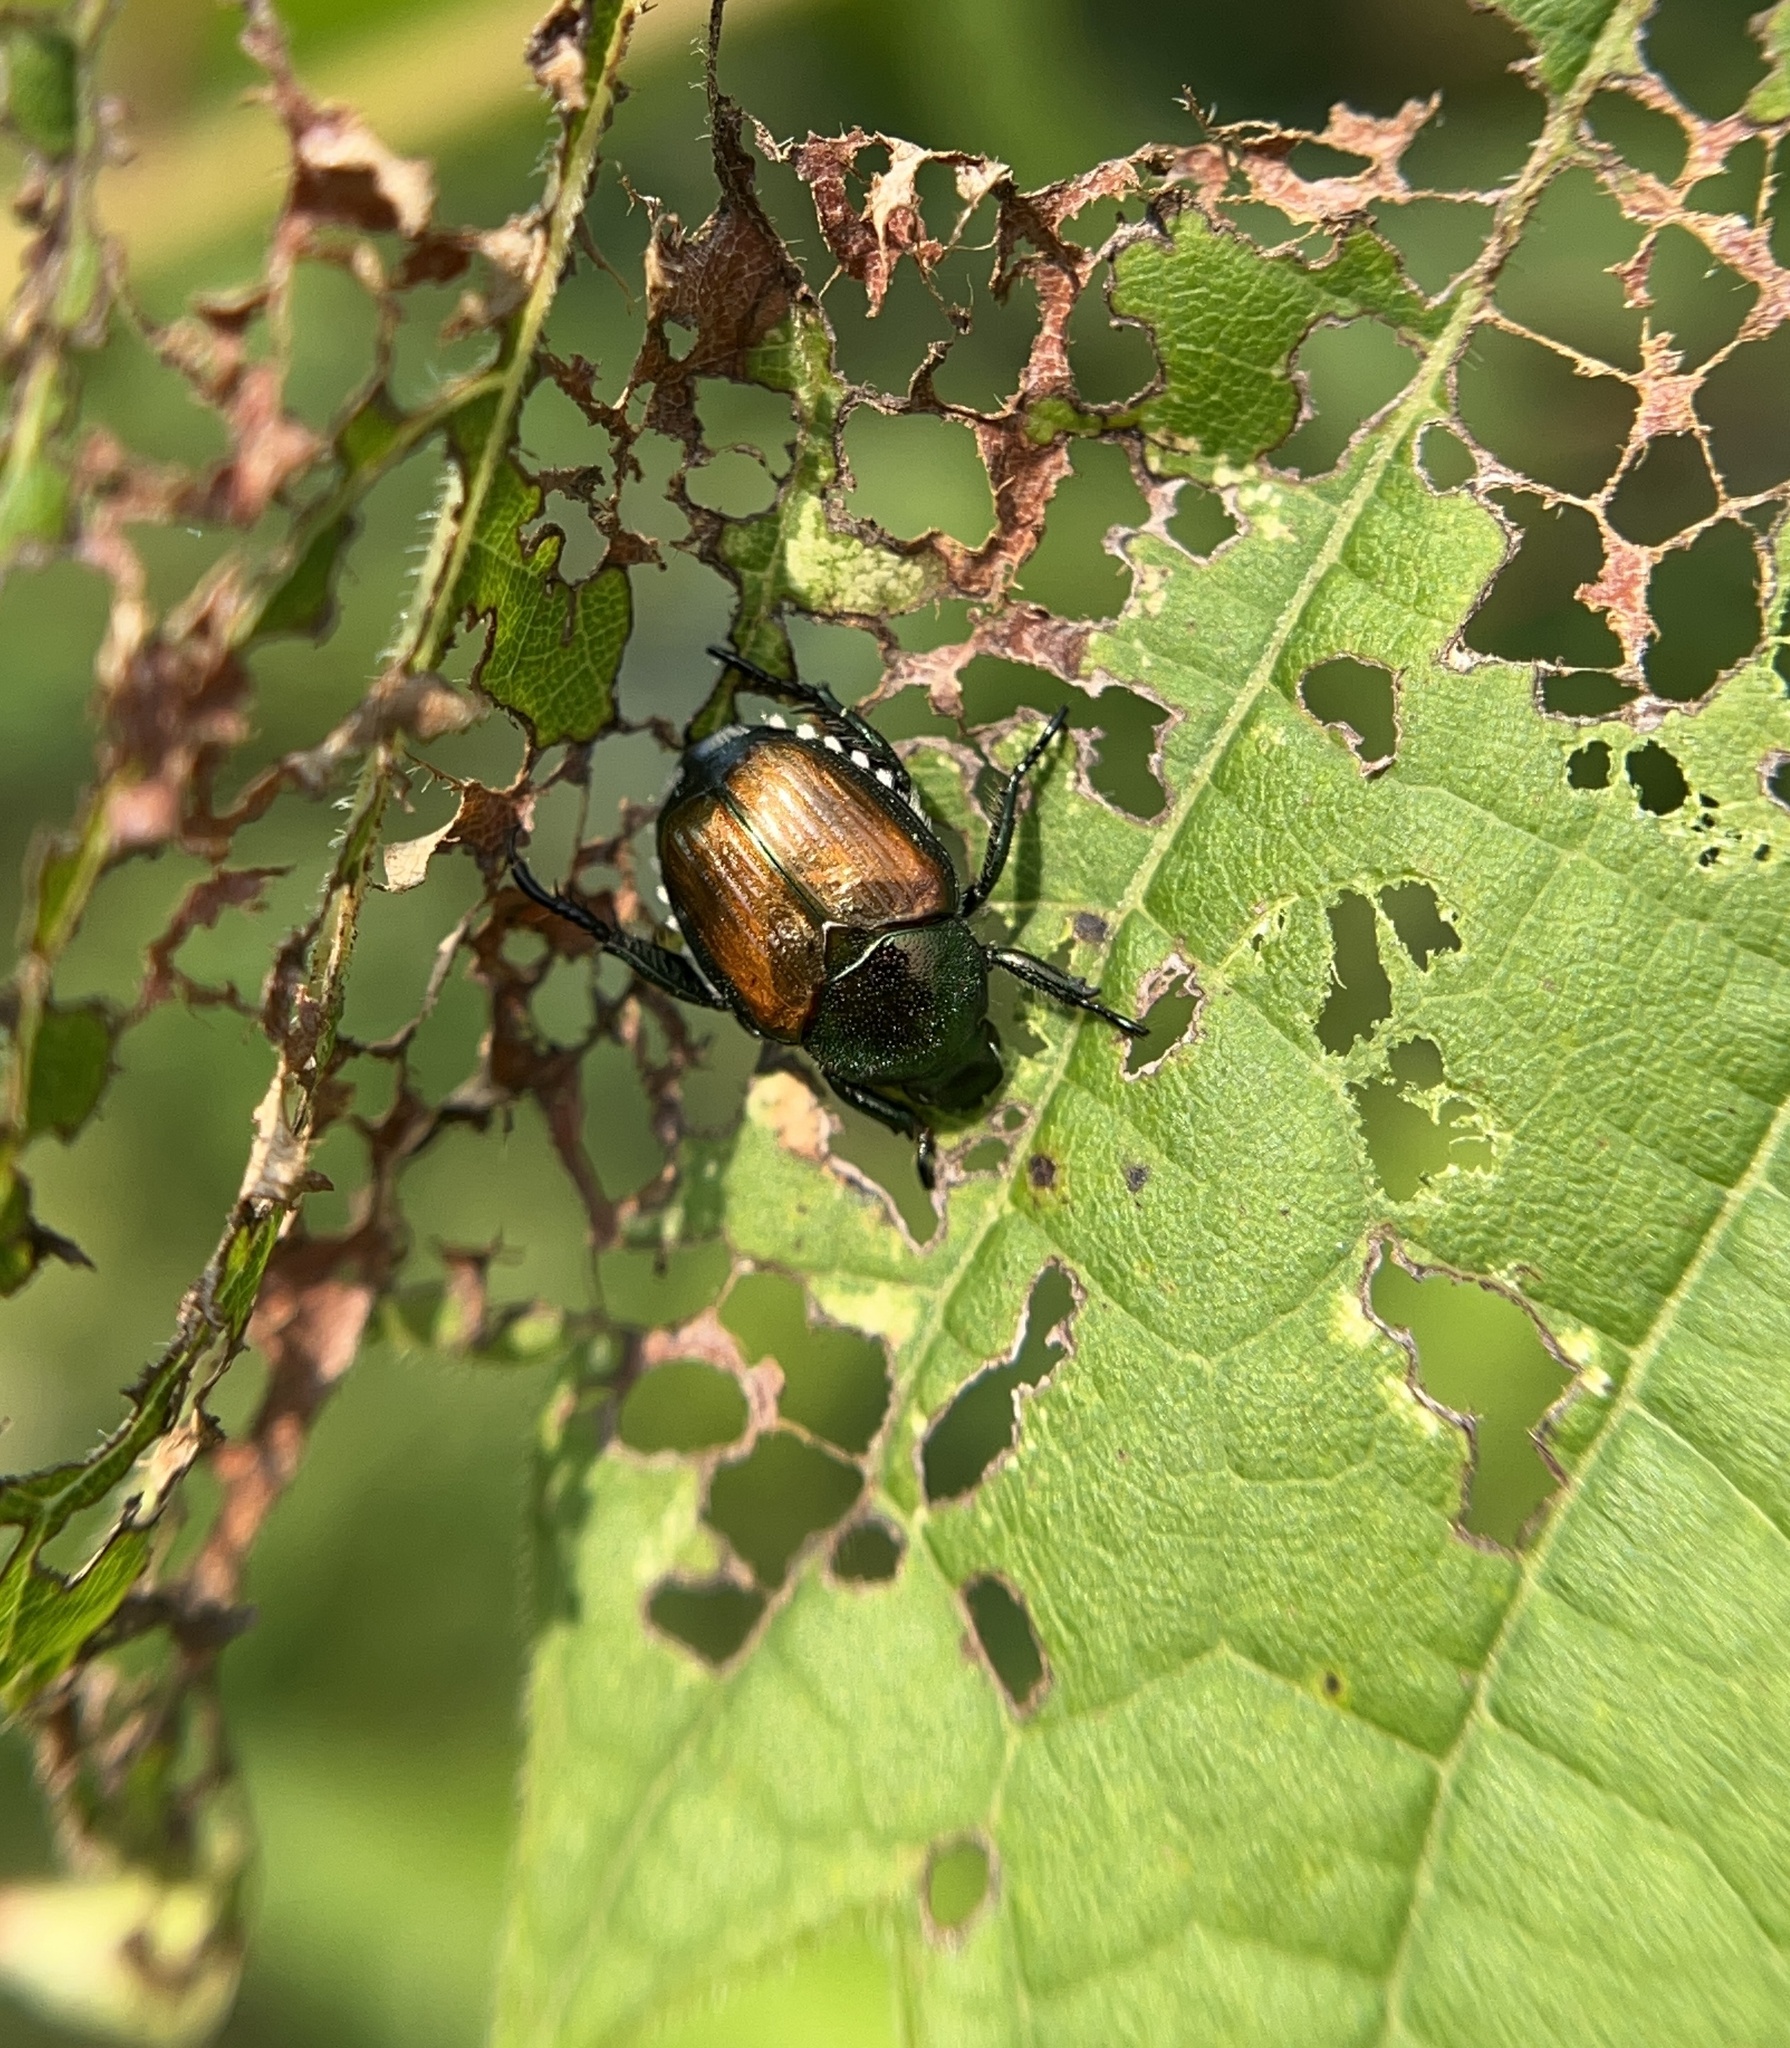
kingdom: Animalia
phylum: Arthropoda
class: Insecta
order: Coleoptera
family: Scarabaeidae
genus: Popillia
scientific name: Popillia japonica
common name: Japanese beetle
